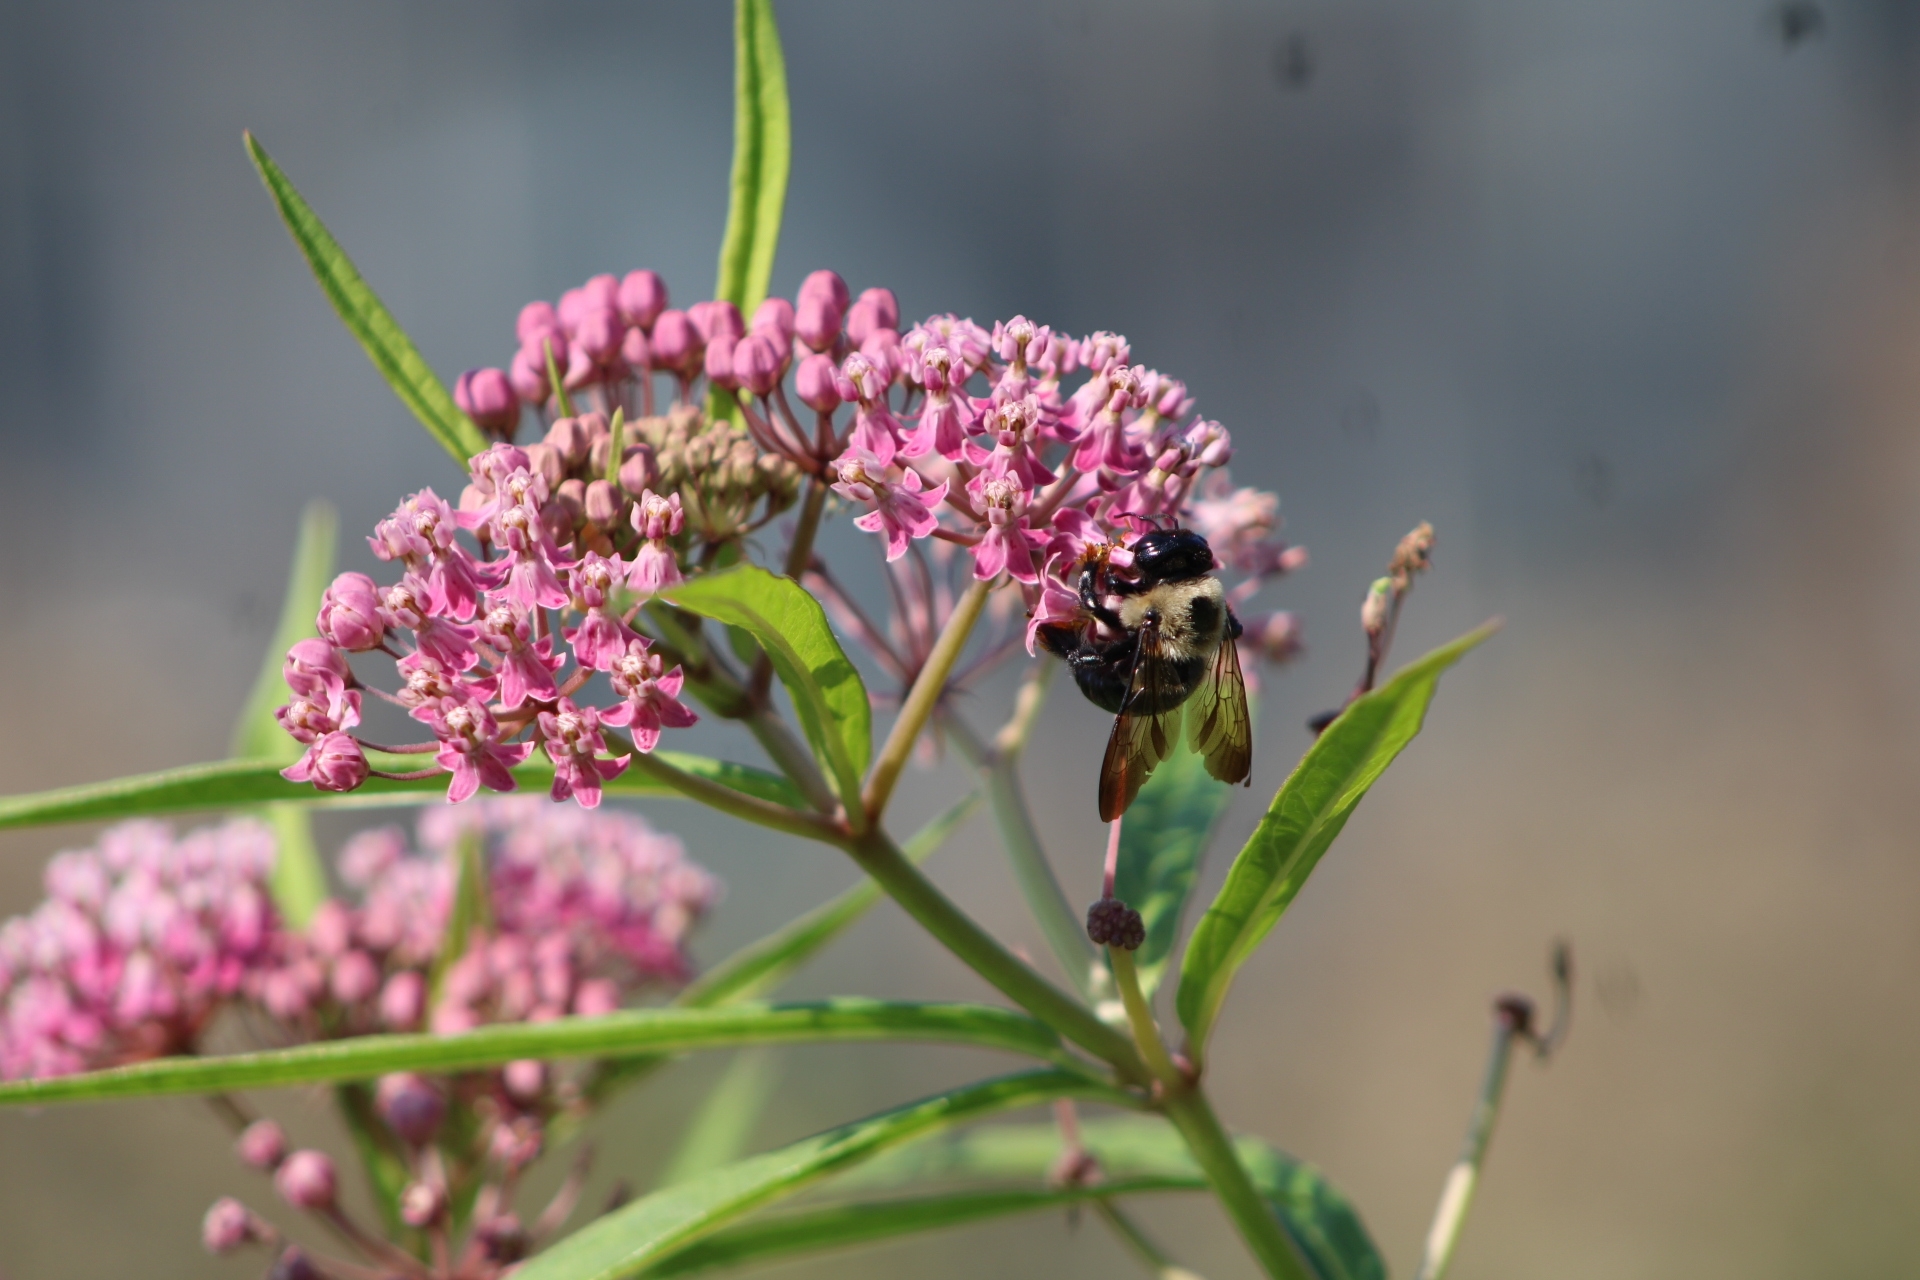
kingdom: Animalia
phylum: Arthropoda
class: Insecta
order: Hymenoptera
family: Apidae
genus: Xylocopa
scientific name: Xylocopa virginica
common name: Carpenter bee
